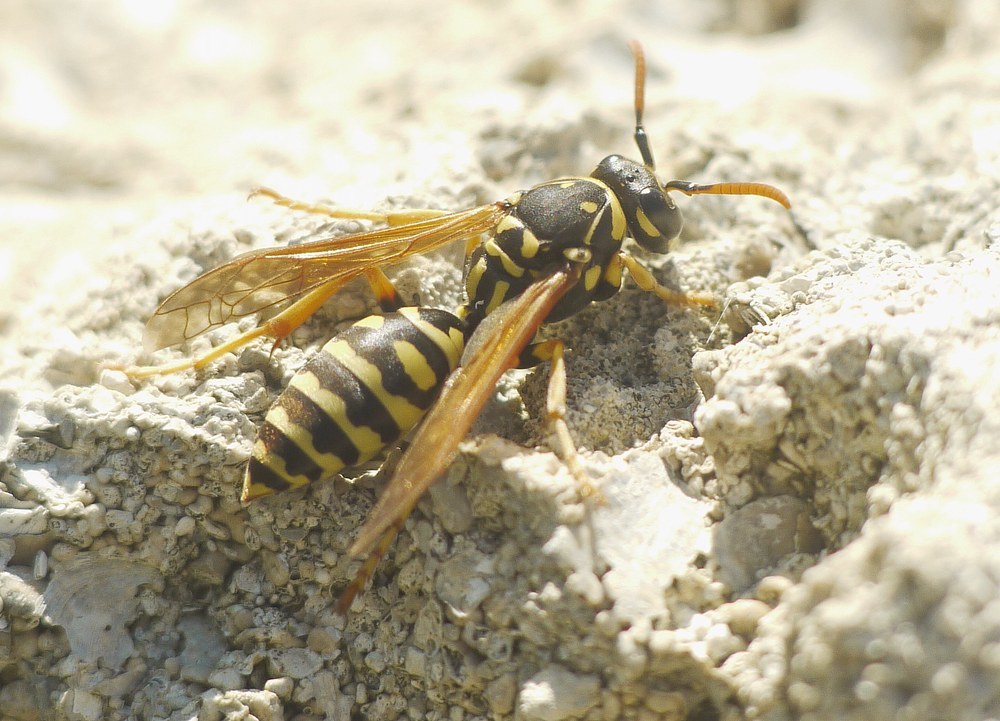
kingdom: Animalia
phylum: Arthropoda
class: Insecta
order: Hymenoptera
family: Eumenidae
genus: Polistes
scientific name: Polistes dominula
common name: Paper wasp
